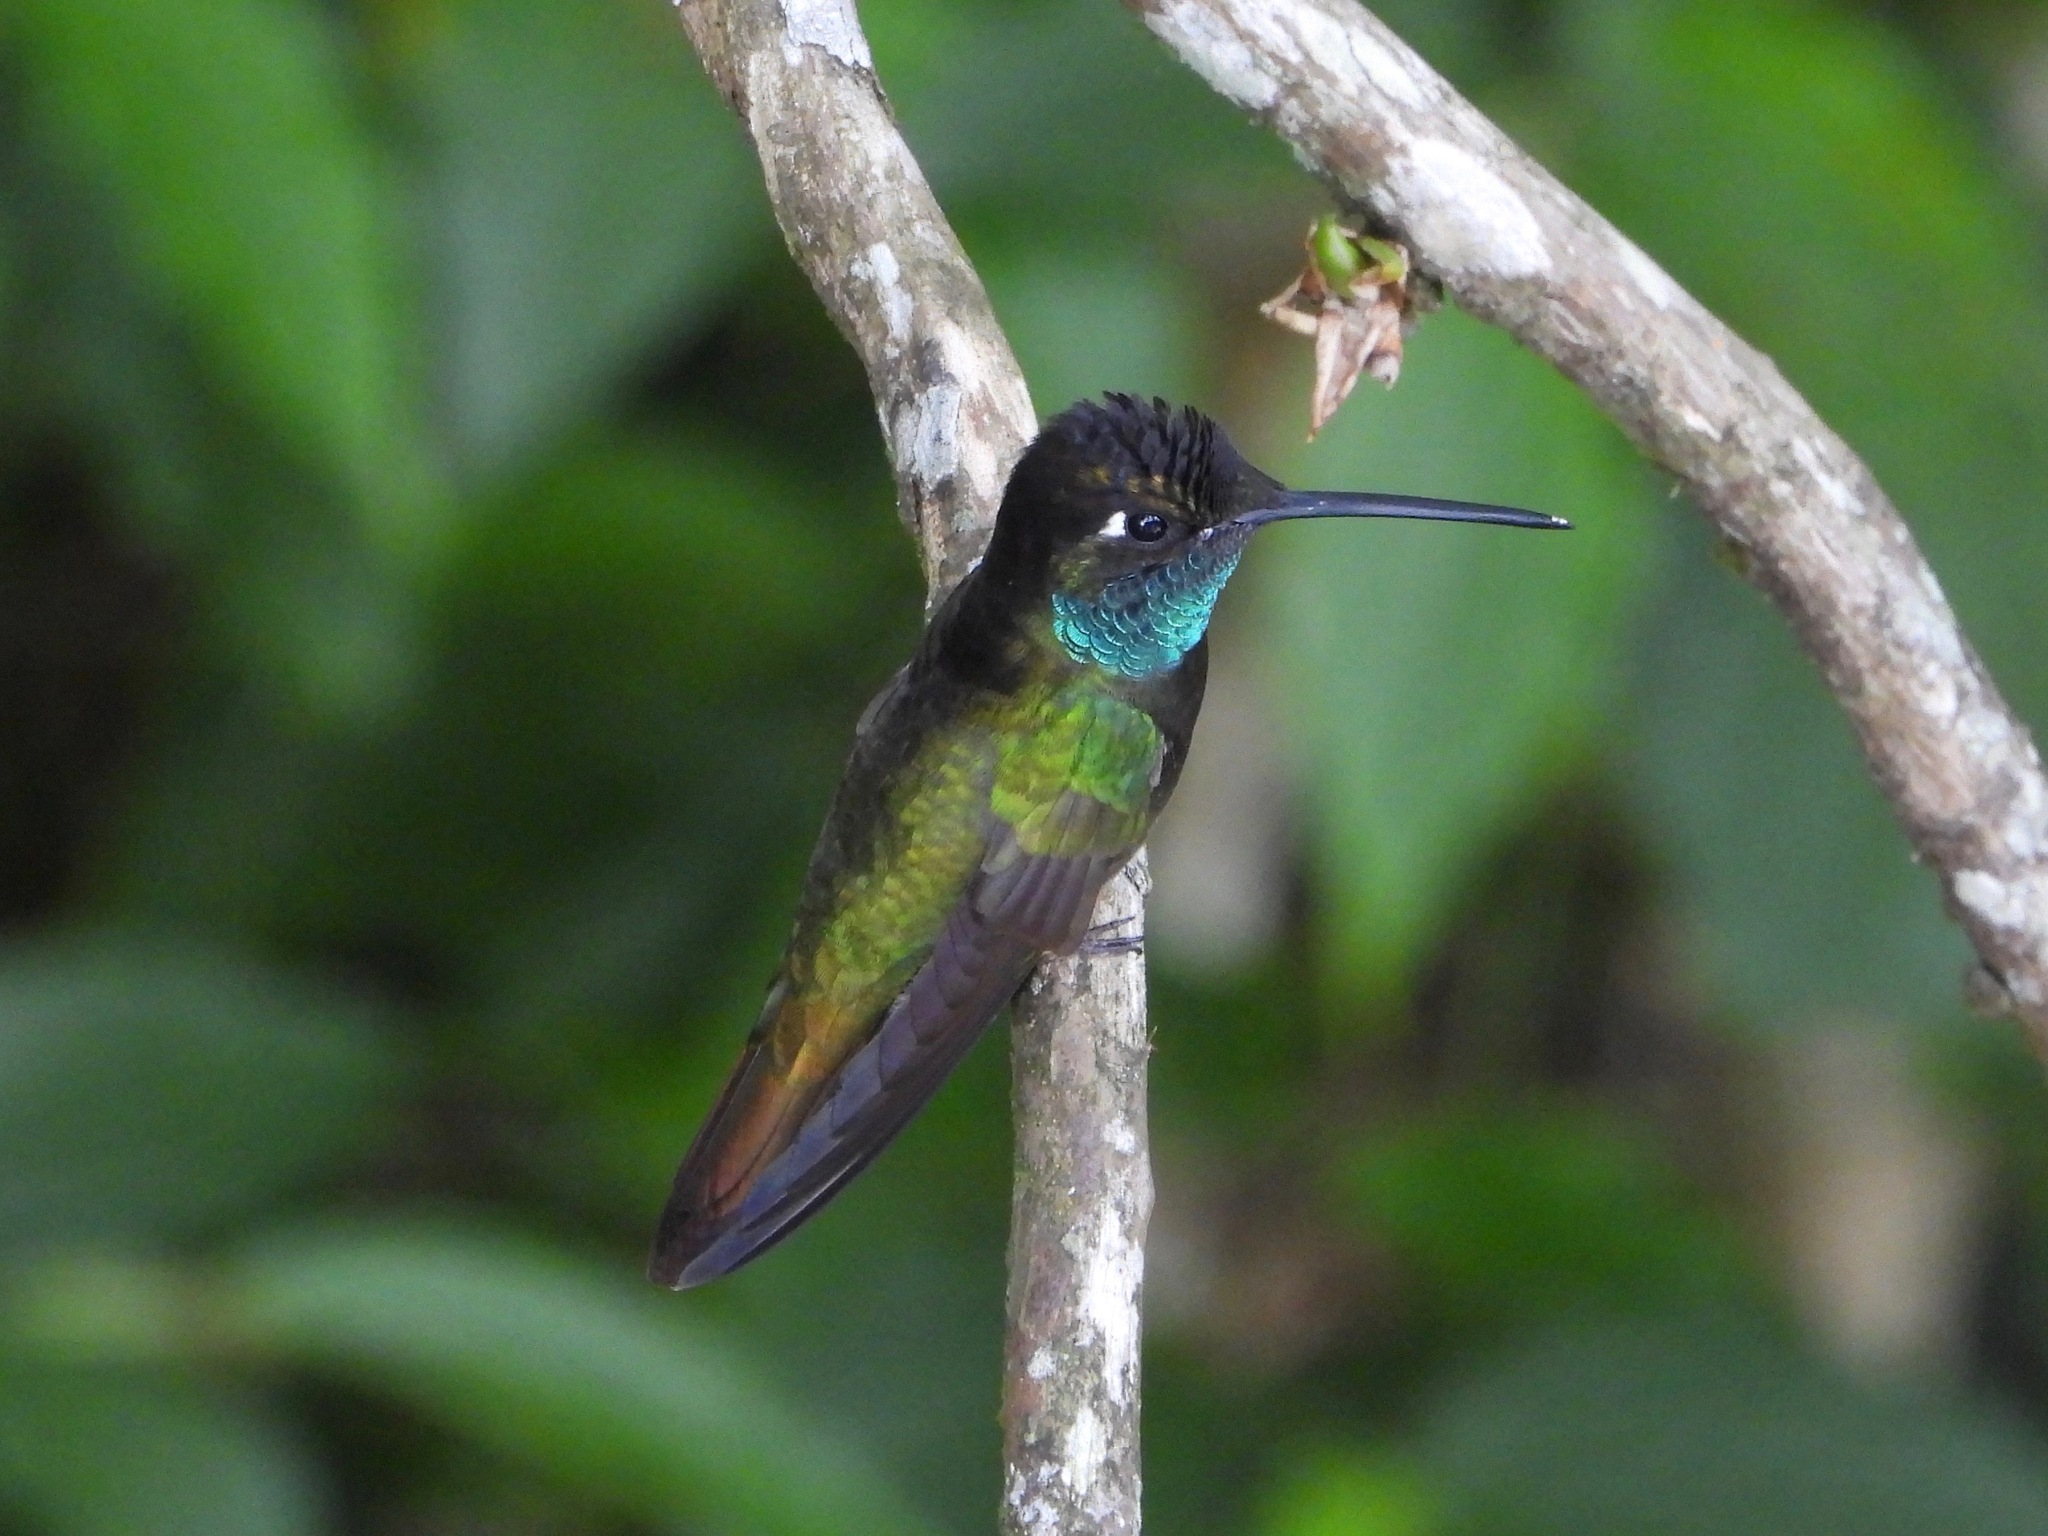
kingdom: Animalia
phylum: Chordata
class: Aves
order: Apodiformes
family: Trochilidae
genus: Eugenes
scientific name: Eugenes fulgens
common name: Magnificent hummingbird
